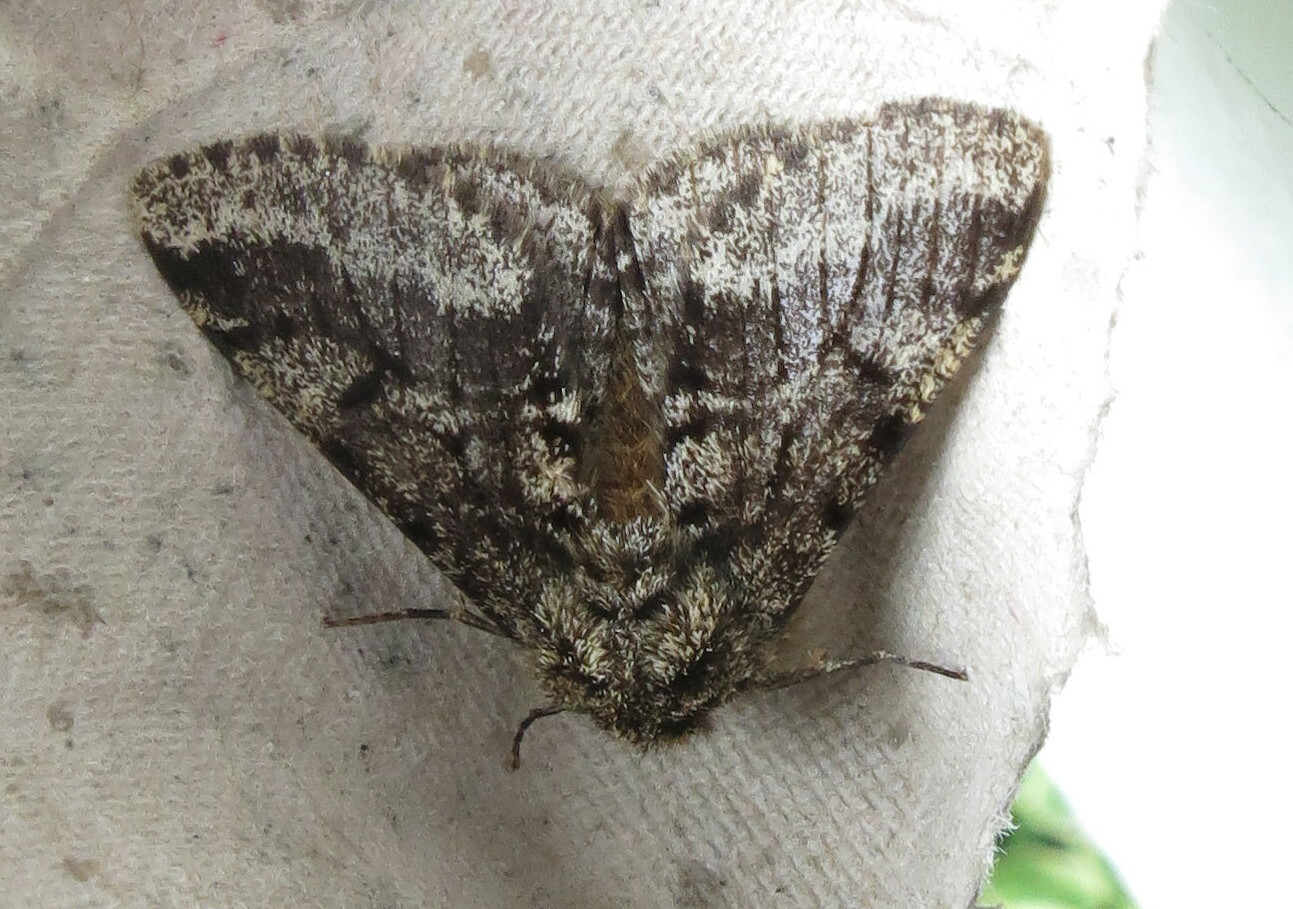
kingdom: Animalia
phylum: Arthropoda
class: Insecta
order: Lepidoptera
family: Geometridae
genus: Lycia
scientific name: Lycia hirtaria
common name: Brindled beauty
